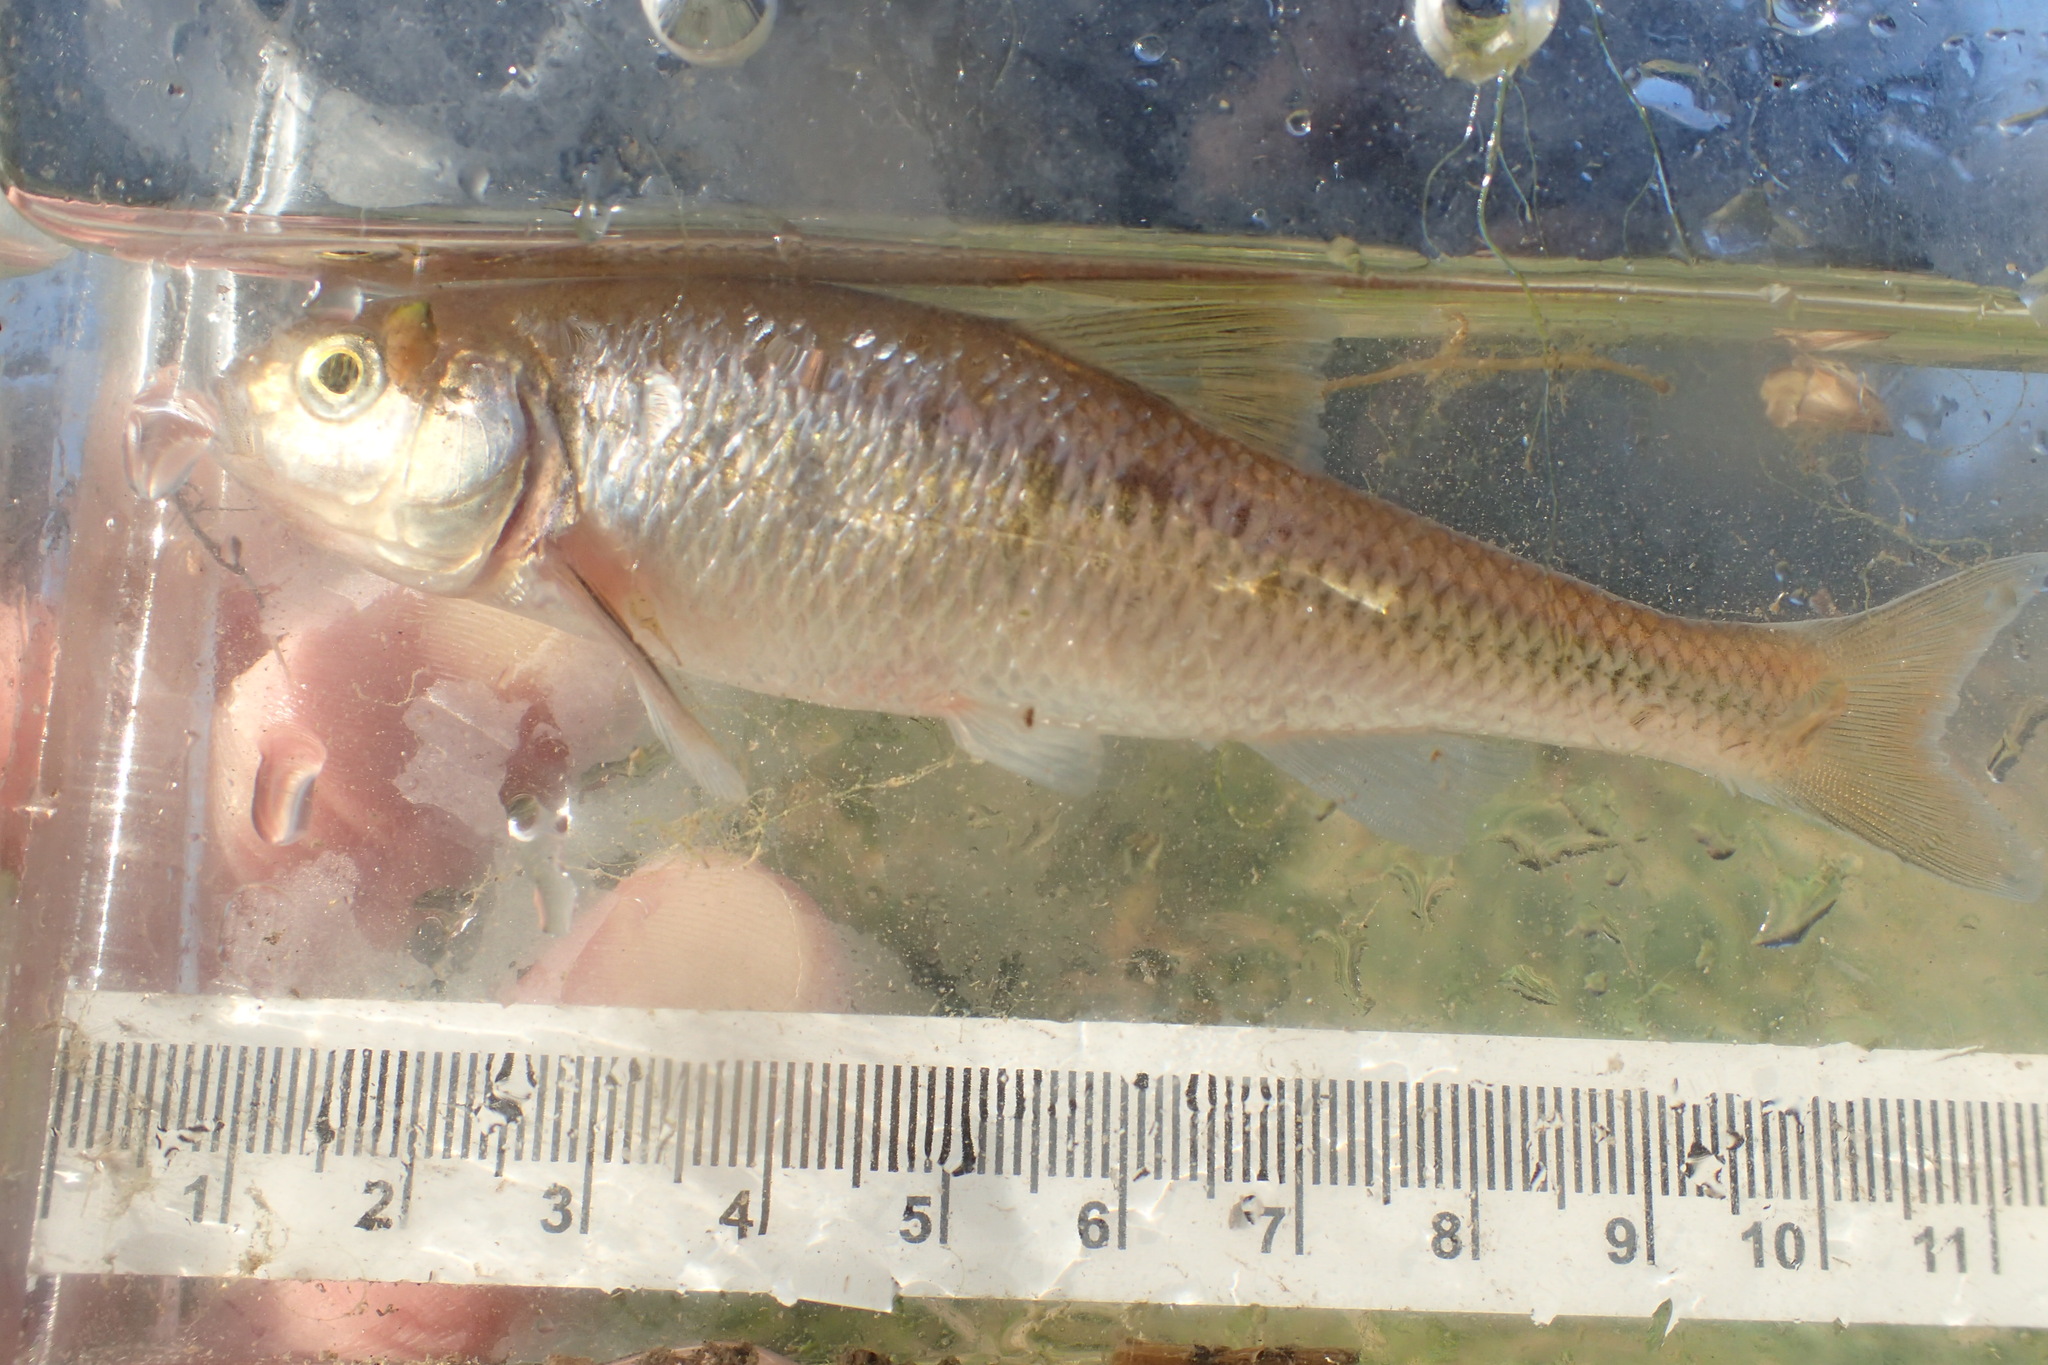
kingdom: Animalia
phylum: Chordata
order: Cypriniformes
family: Cyprinidae
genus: Luxilus
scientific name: Luxilus cornutus
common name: Common shiner
